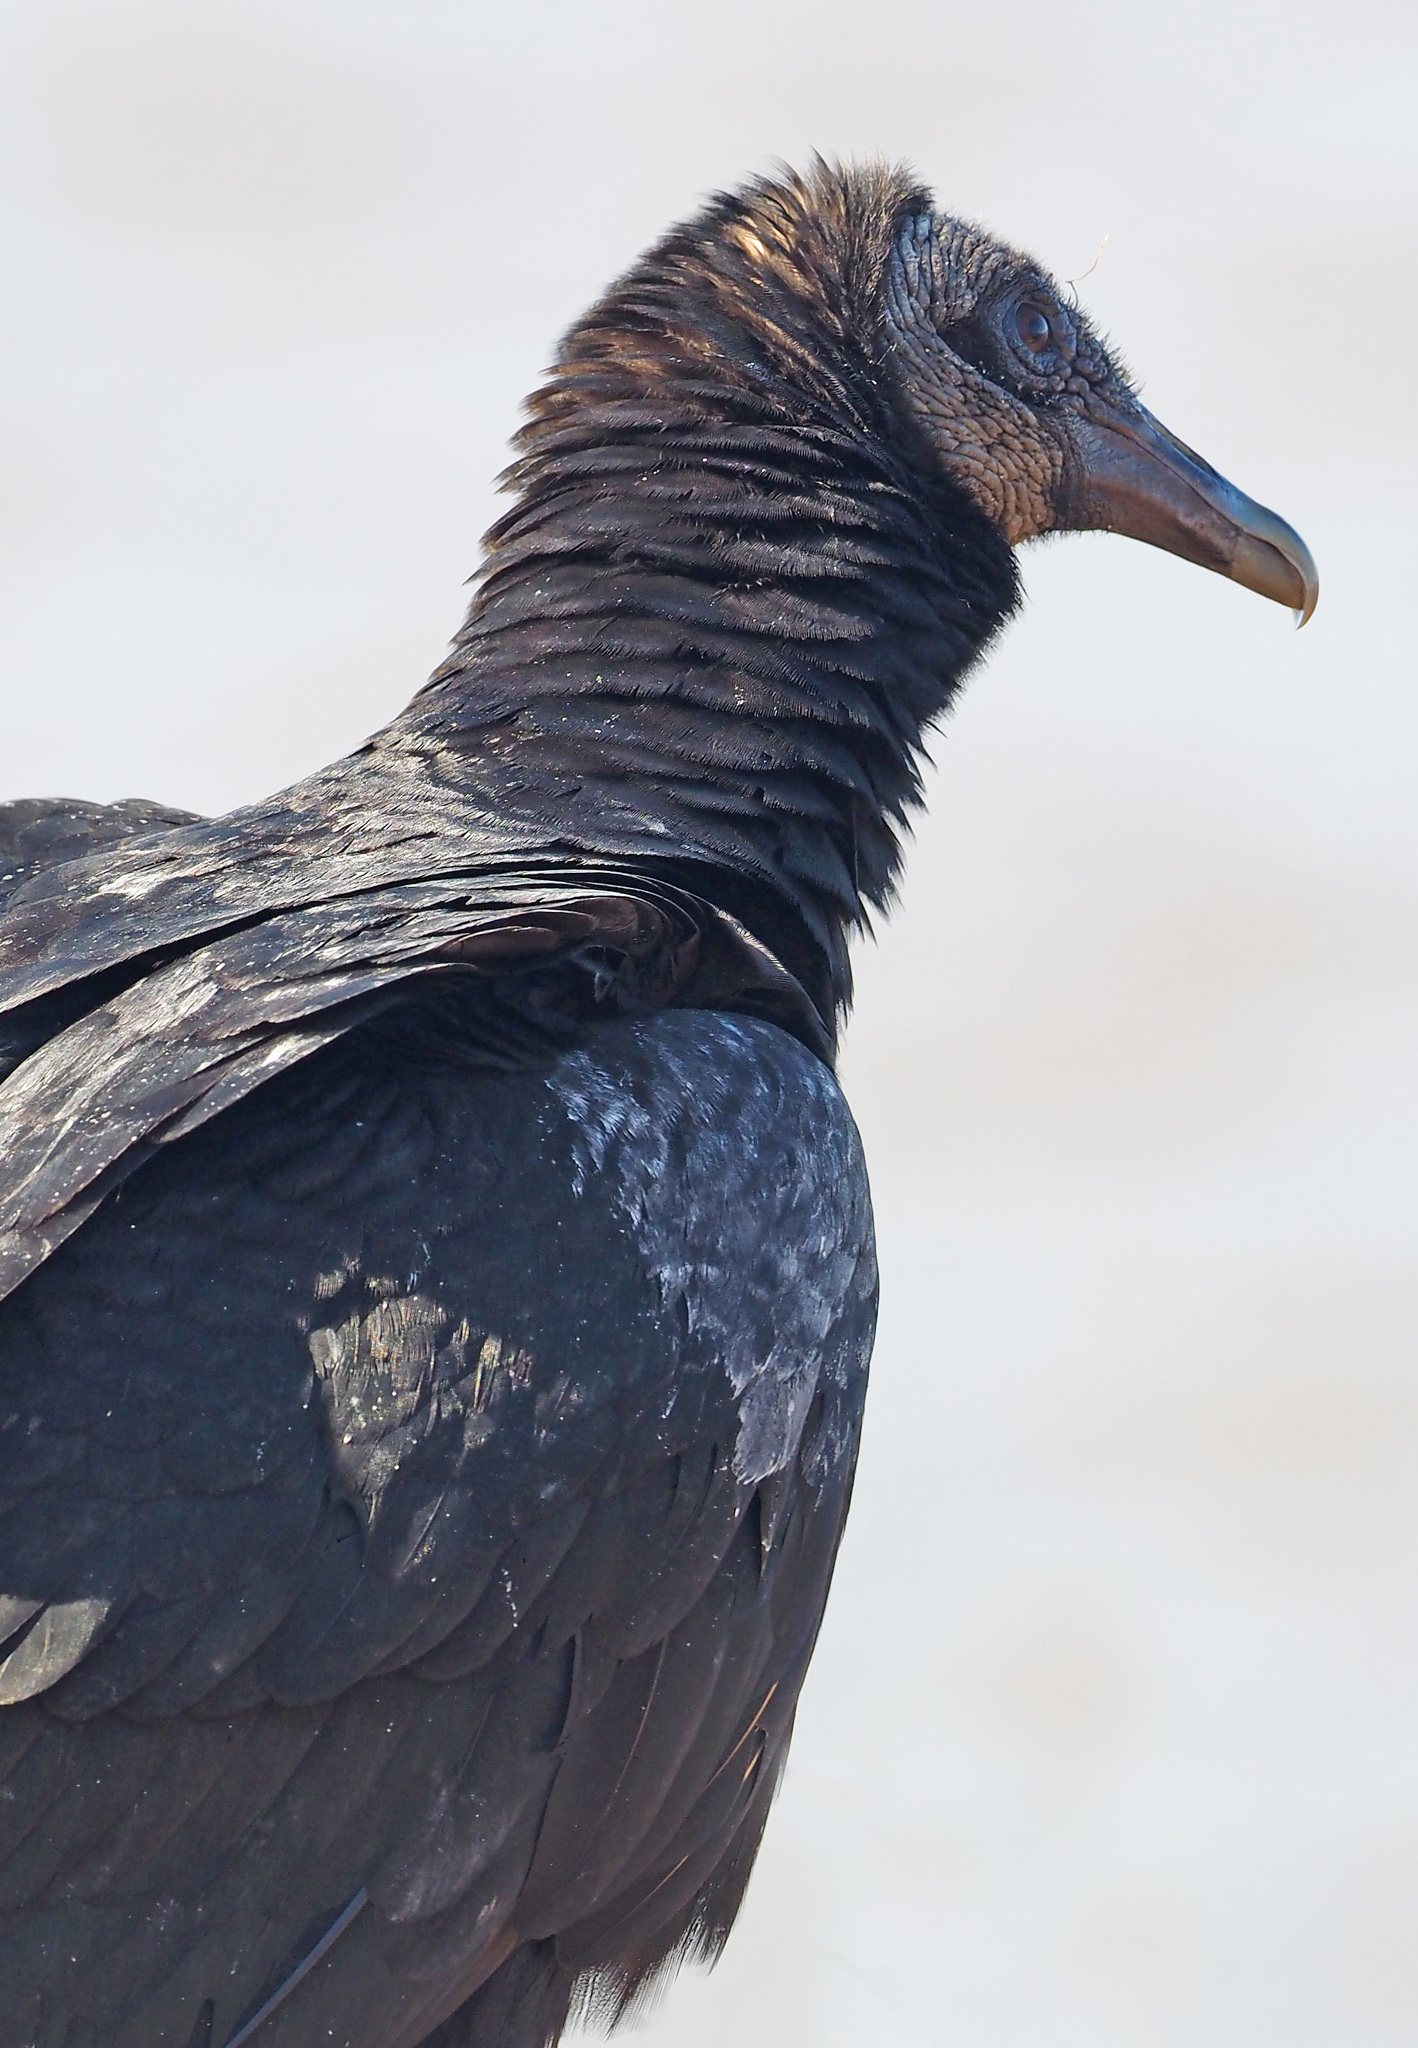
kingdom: Animalia
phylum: Chordata
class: Aves
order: Accipitriformes
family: Cathartidae
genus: Coragyps
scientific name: Coragyps atratus
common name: Black vulture
